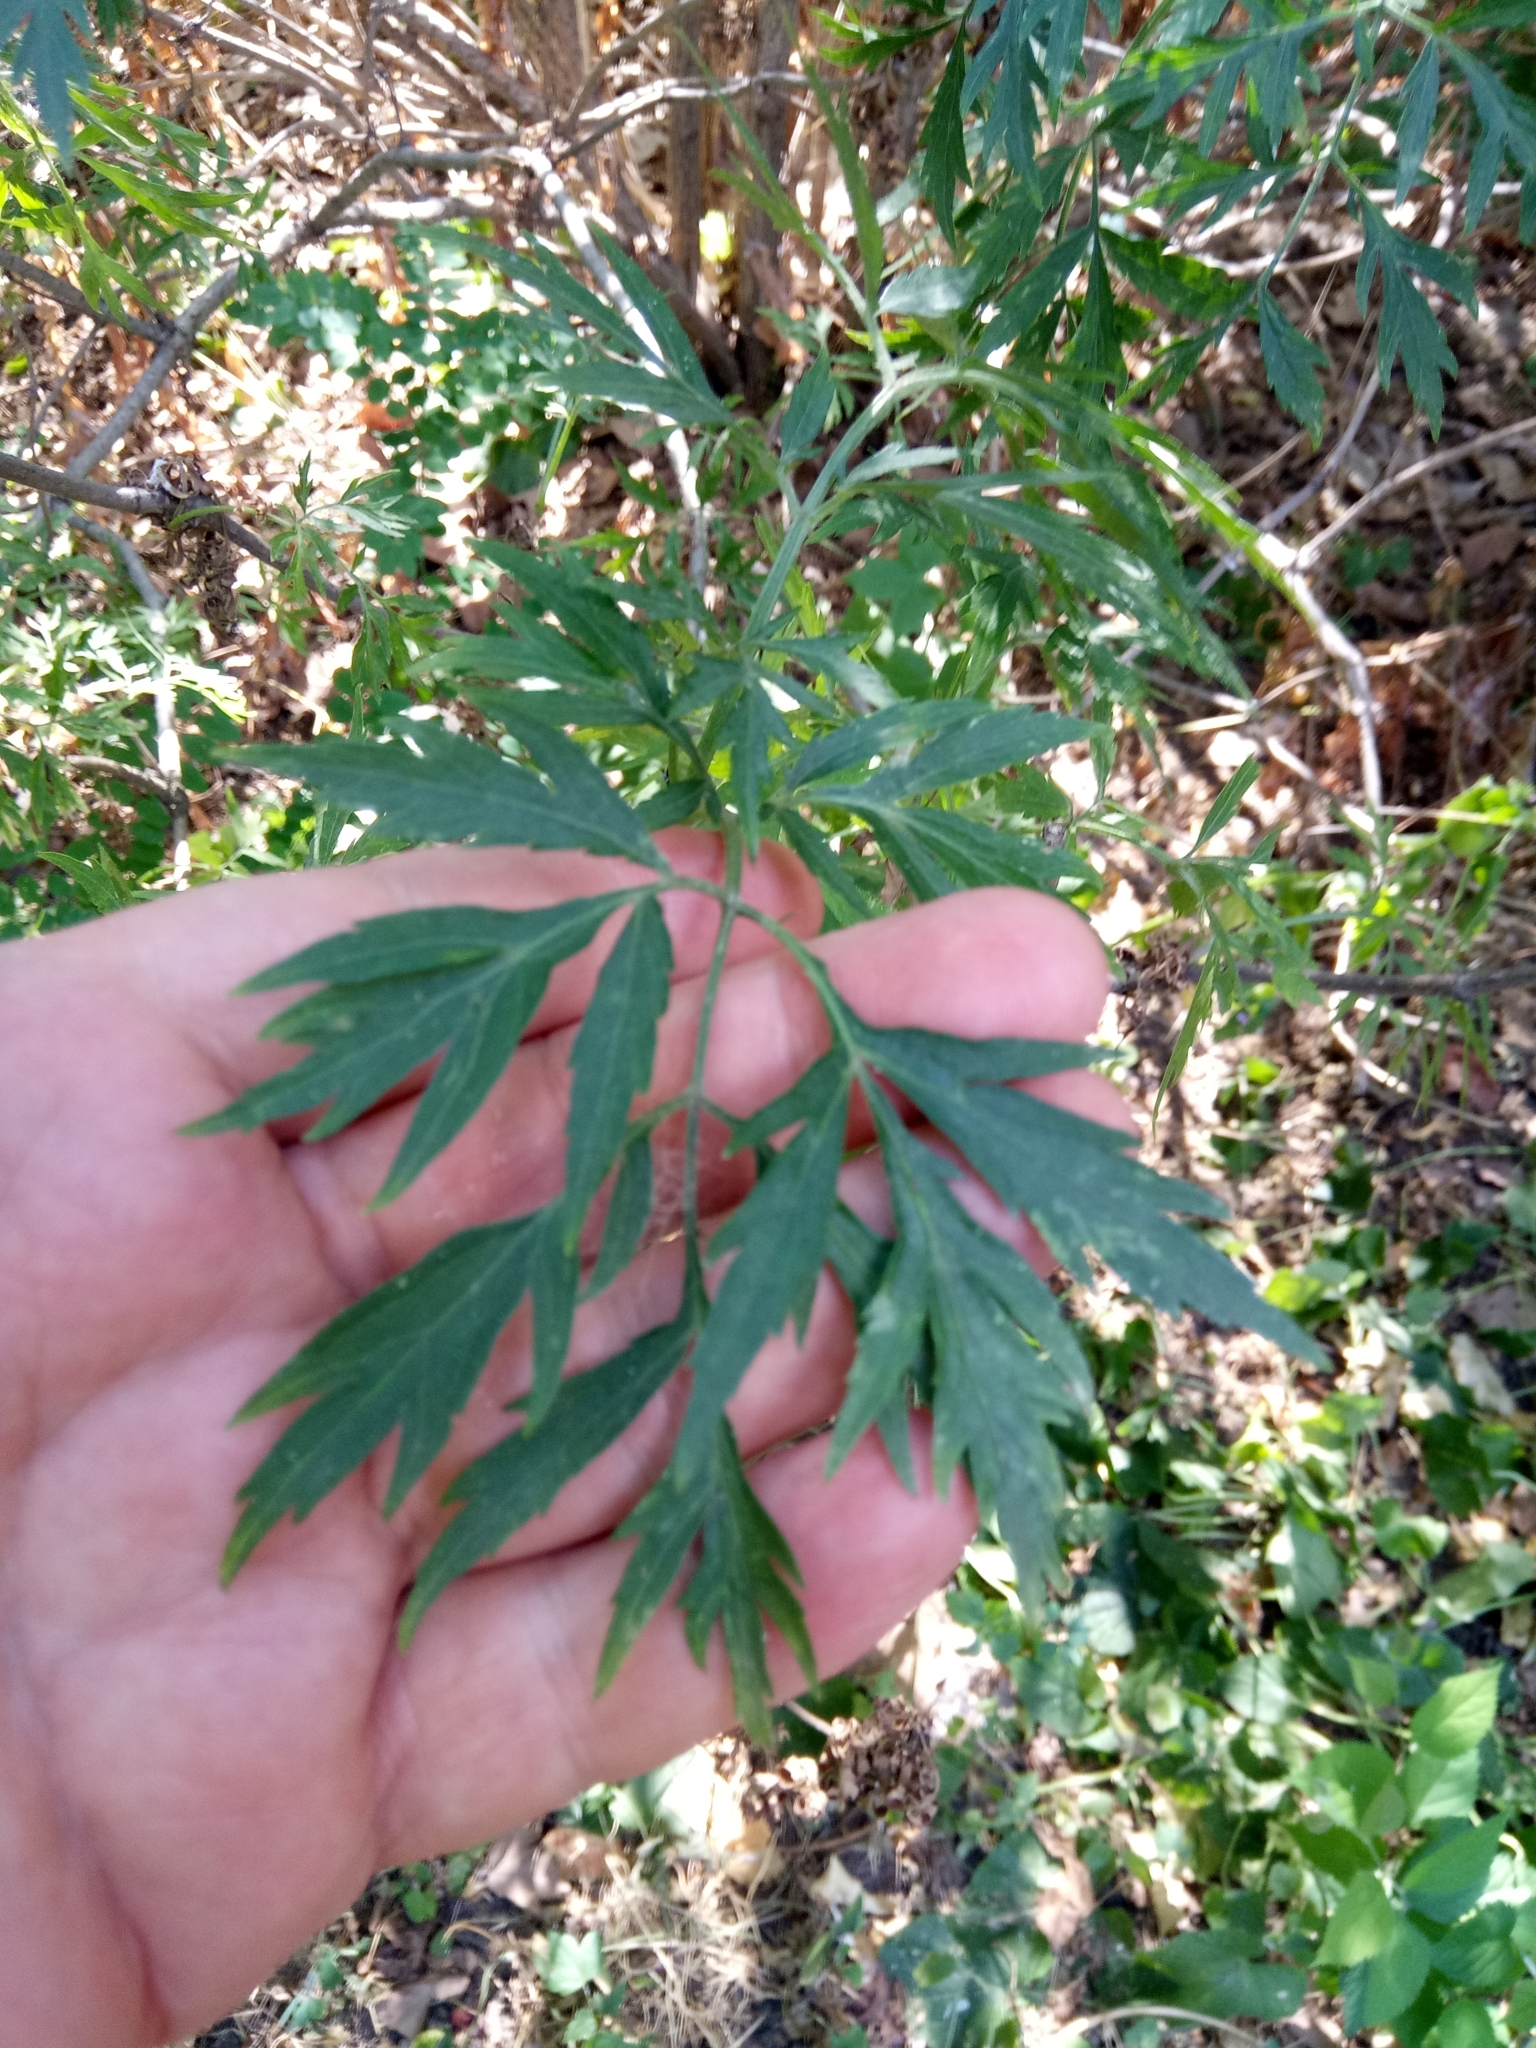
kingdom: Plantae
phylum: Tracheophyta
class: Magnoliopsida
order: Dipsacales
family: Viburnaceae
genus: Sambucus
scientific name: Sambucus nigra
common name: Elder
